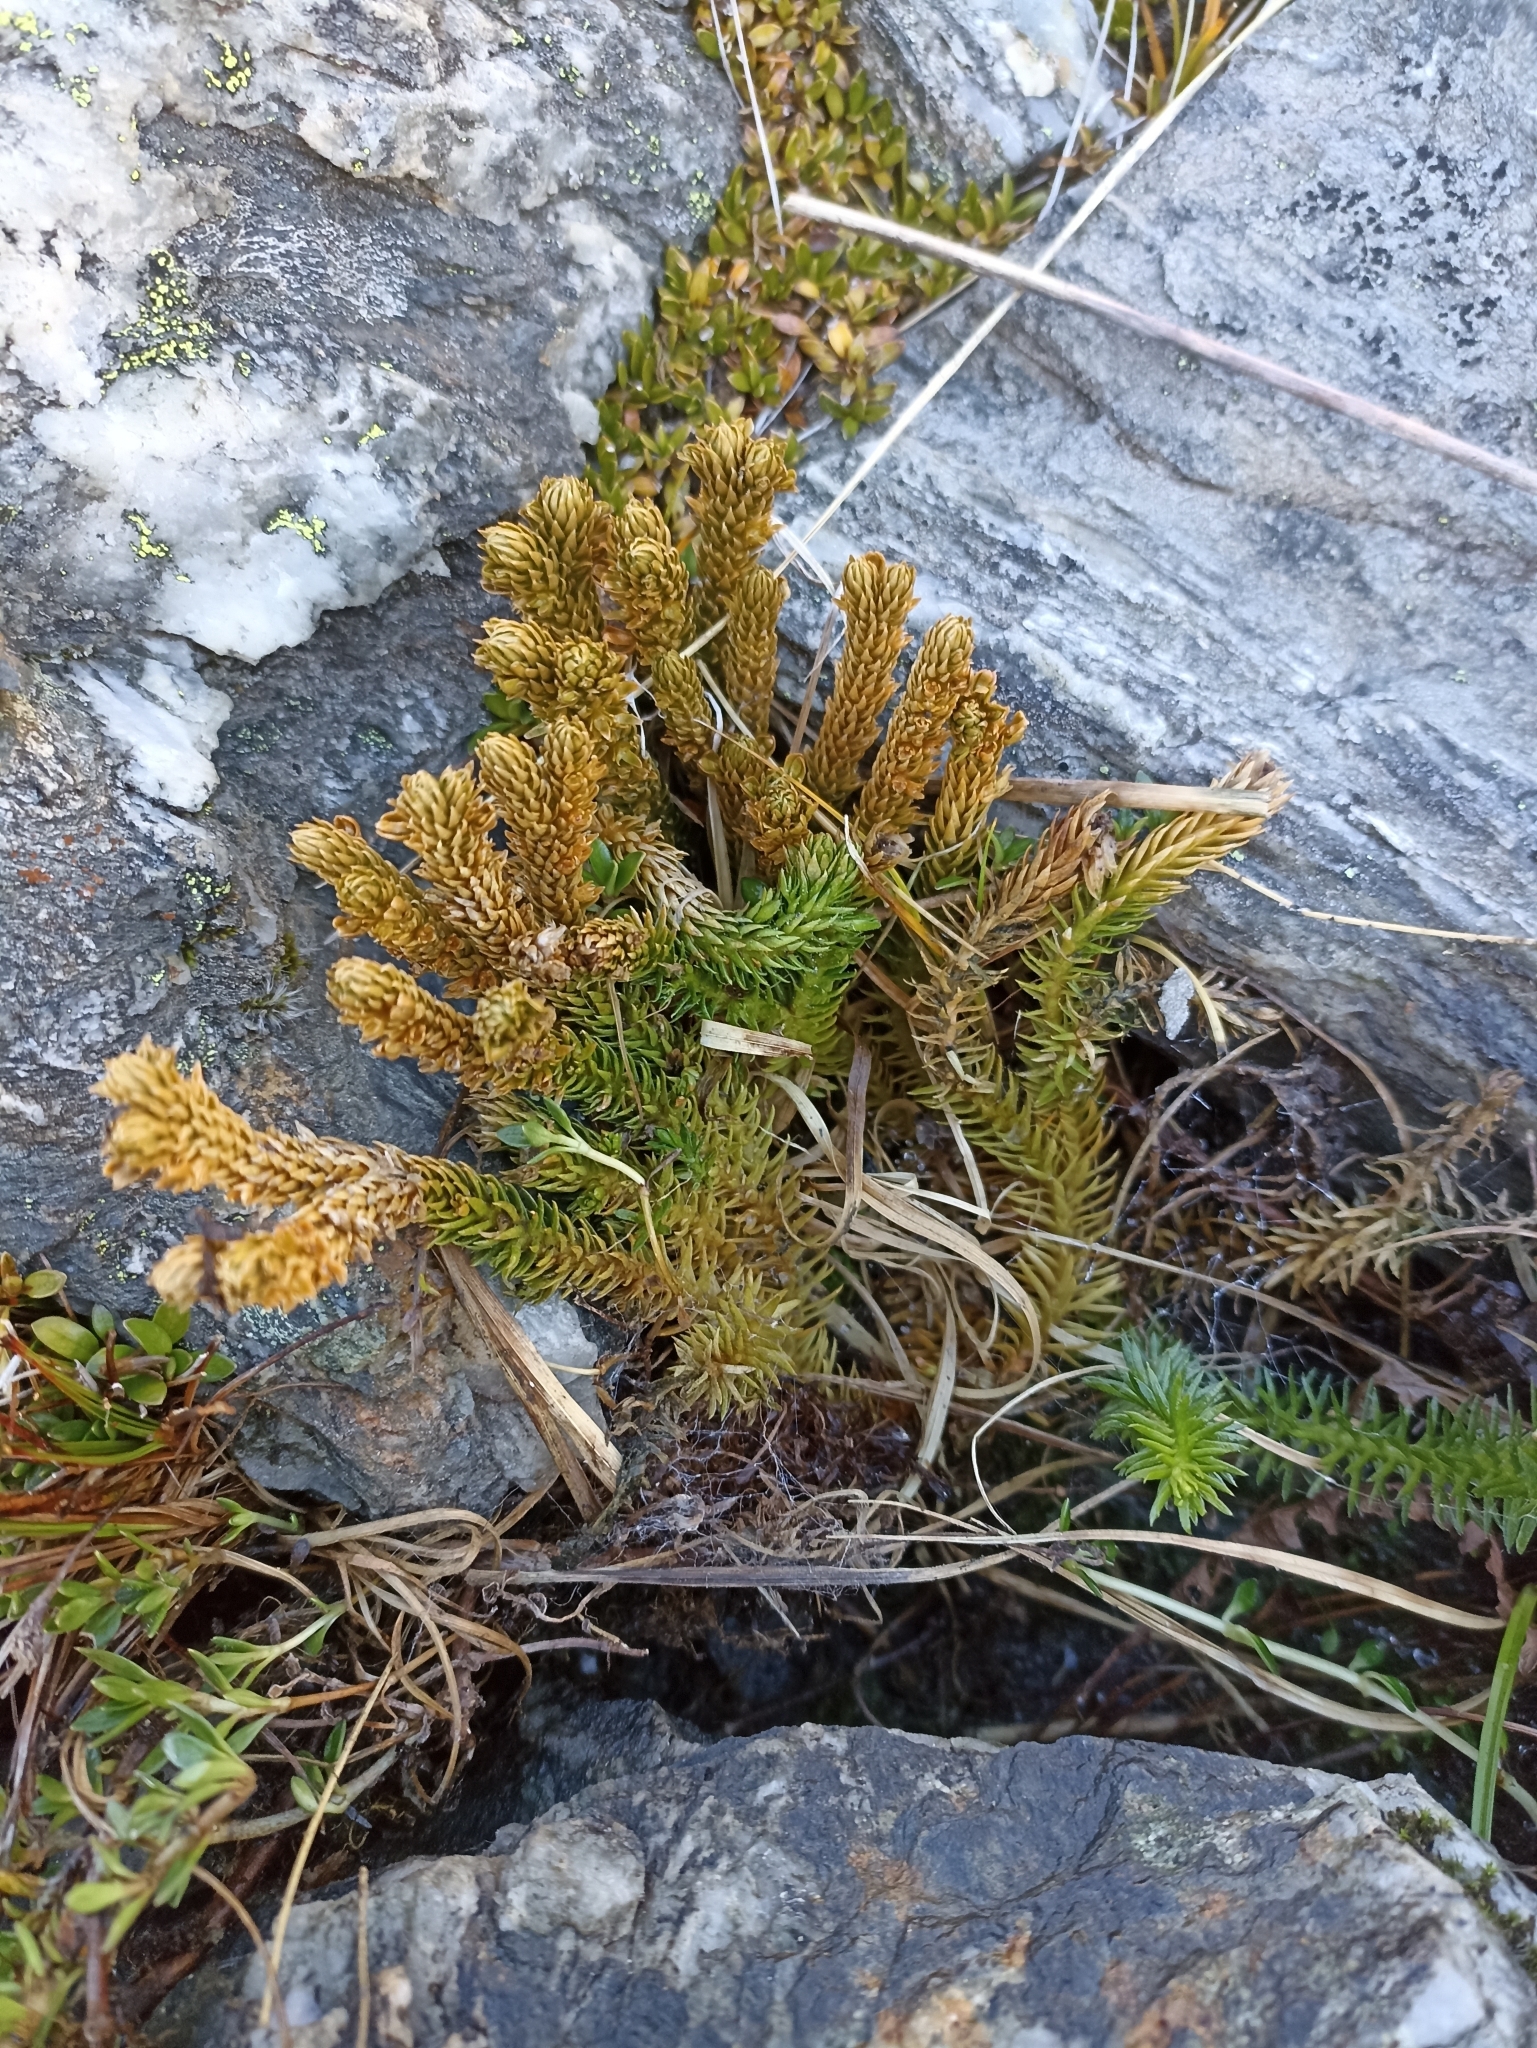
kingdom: Plantae
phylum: Tracheophyta
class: Lycopodiopsida
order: Lycopodiales
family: Lycopodiaceae
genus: Huperzia
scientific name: Huperzia australiana
